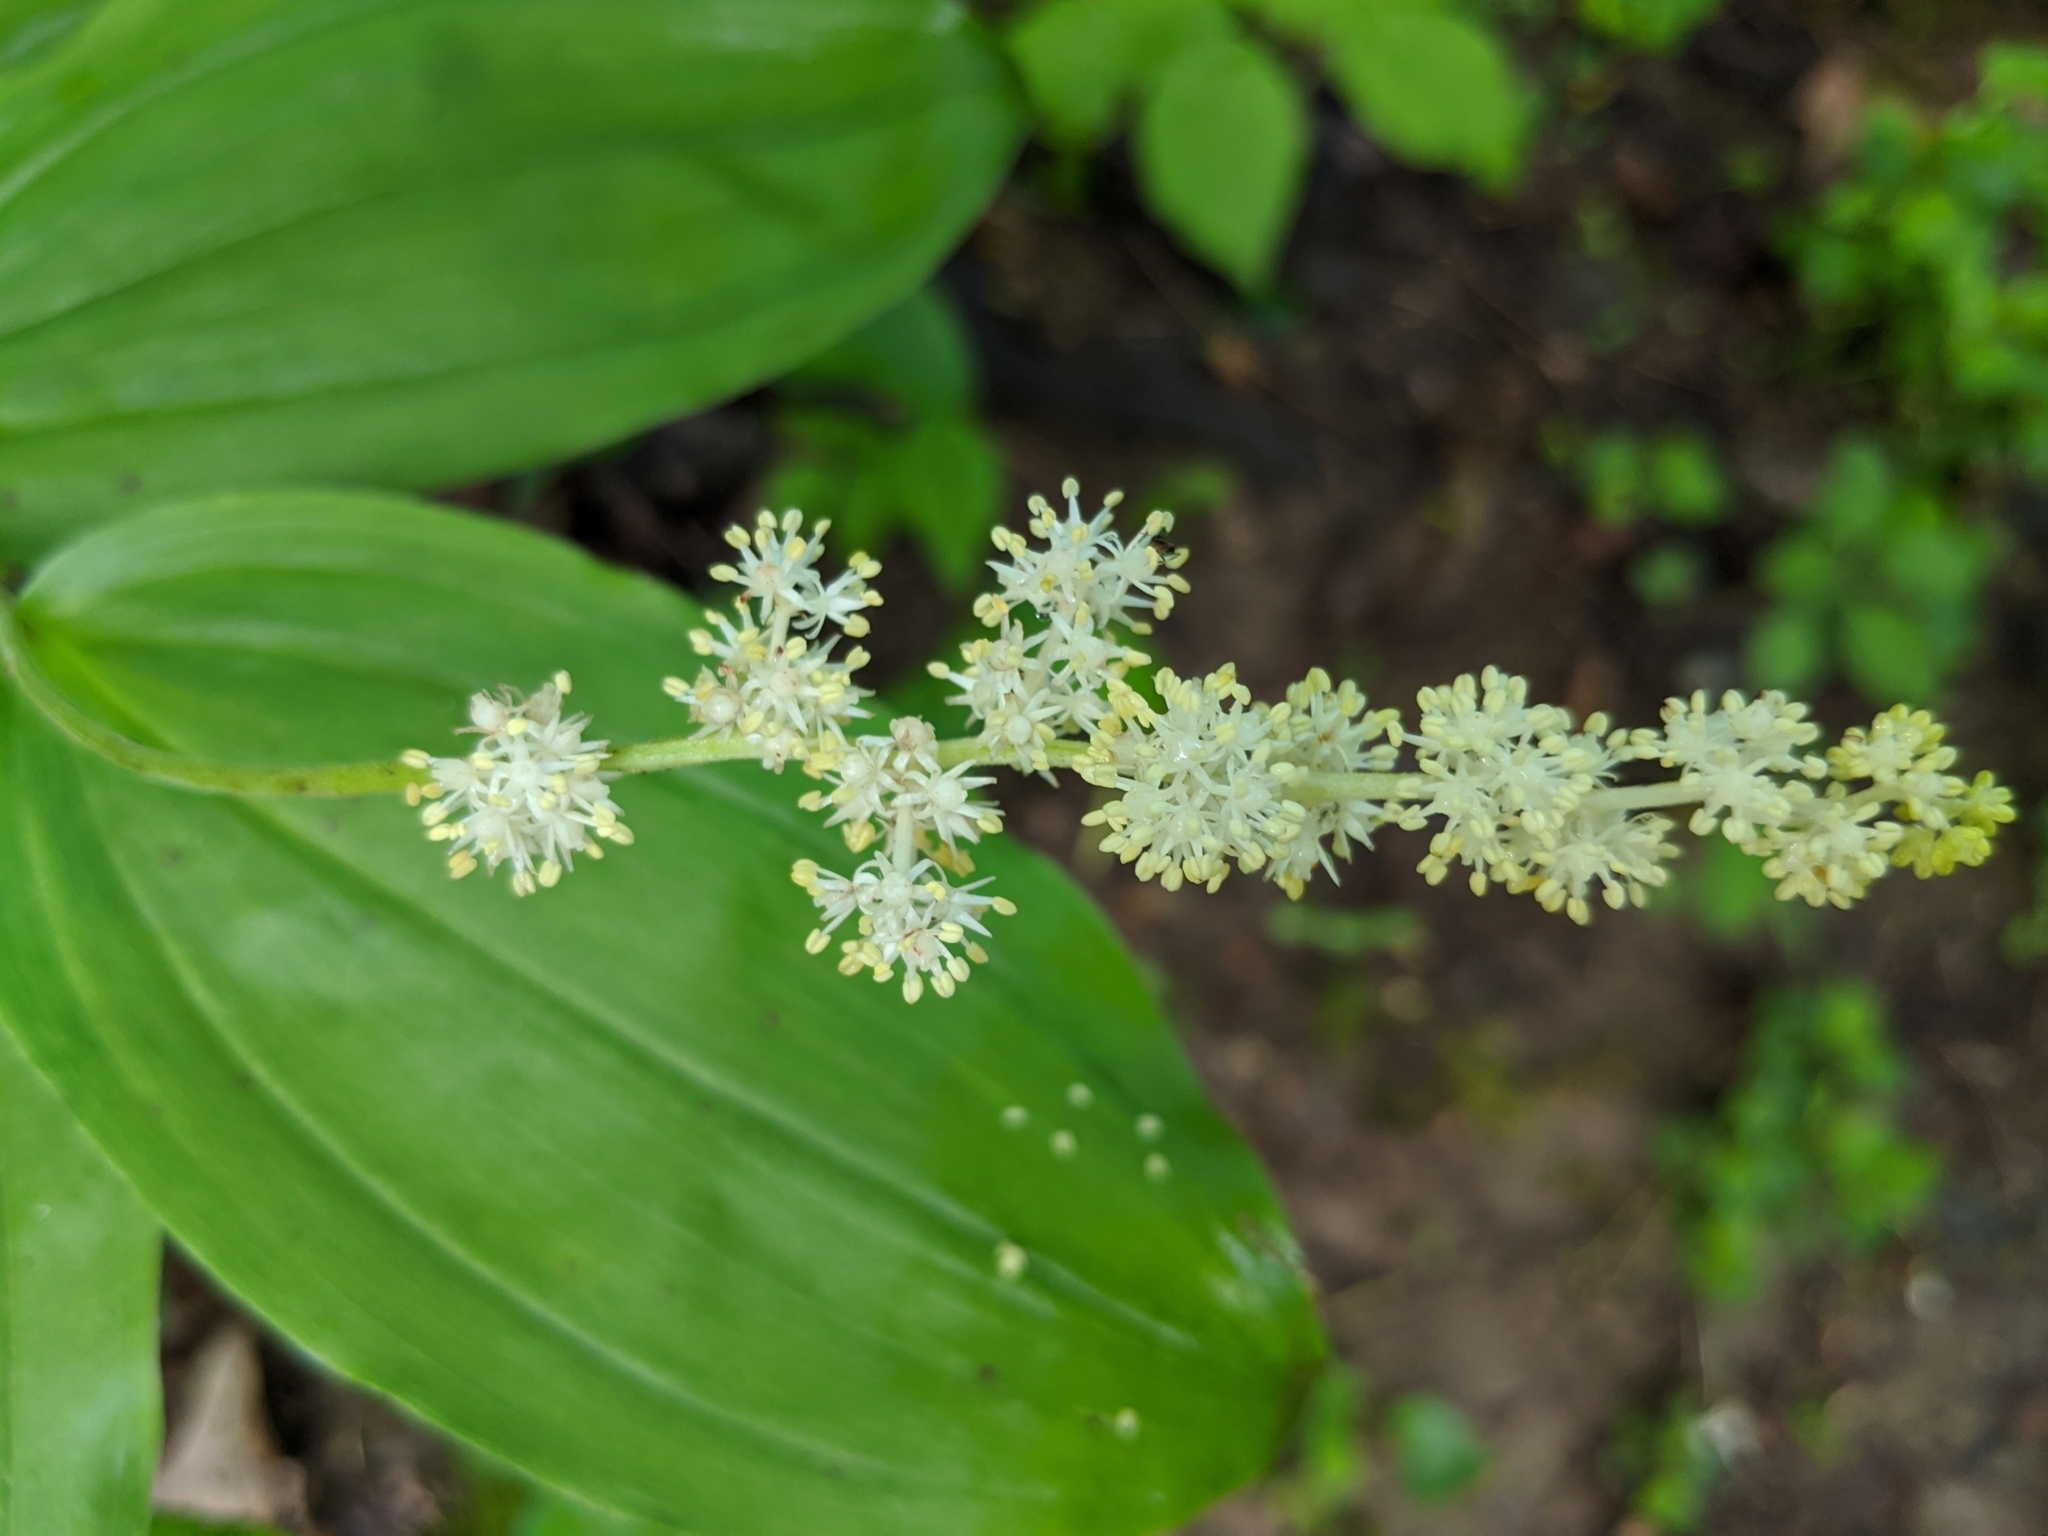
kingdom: Plantae
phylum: Tracheophyta
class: Liliopsida
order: Asparagales
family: Asparagaceae
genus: Maianthemum
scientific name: Maianthemum racemosum
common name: False spikenard
